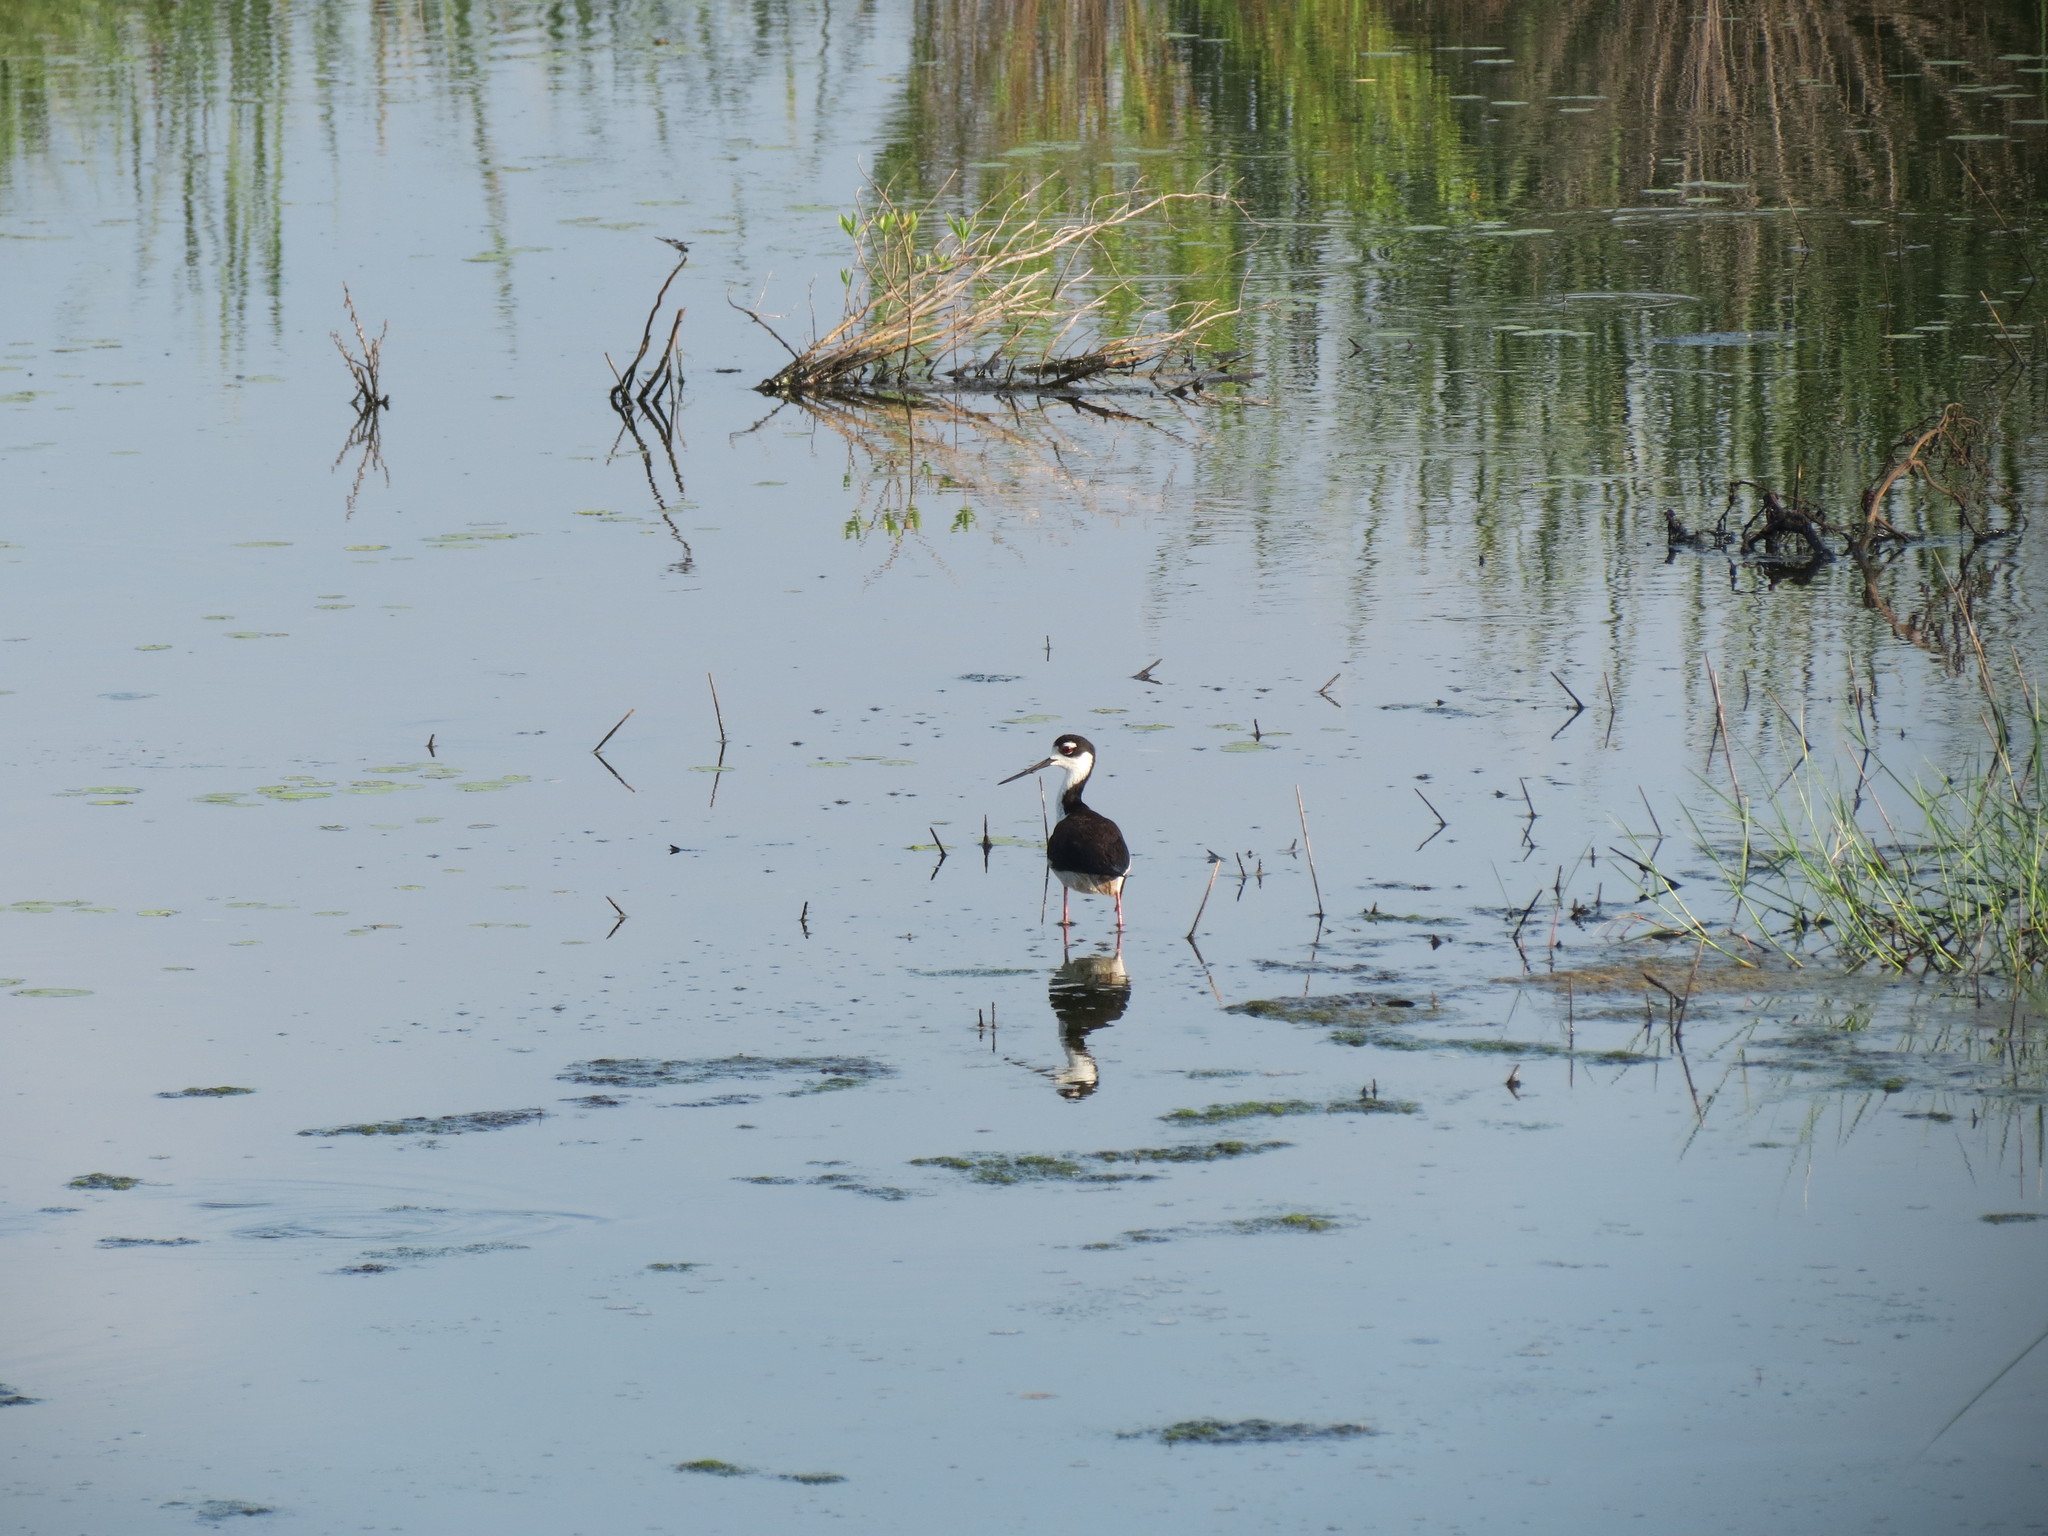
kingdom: Animalia
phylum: Chordata
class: Aves
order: Charadriiformes
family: Recurvirostridae
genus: Himantopus
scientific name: Himantopus mexicanus
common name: Black-necked stilt
